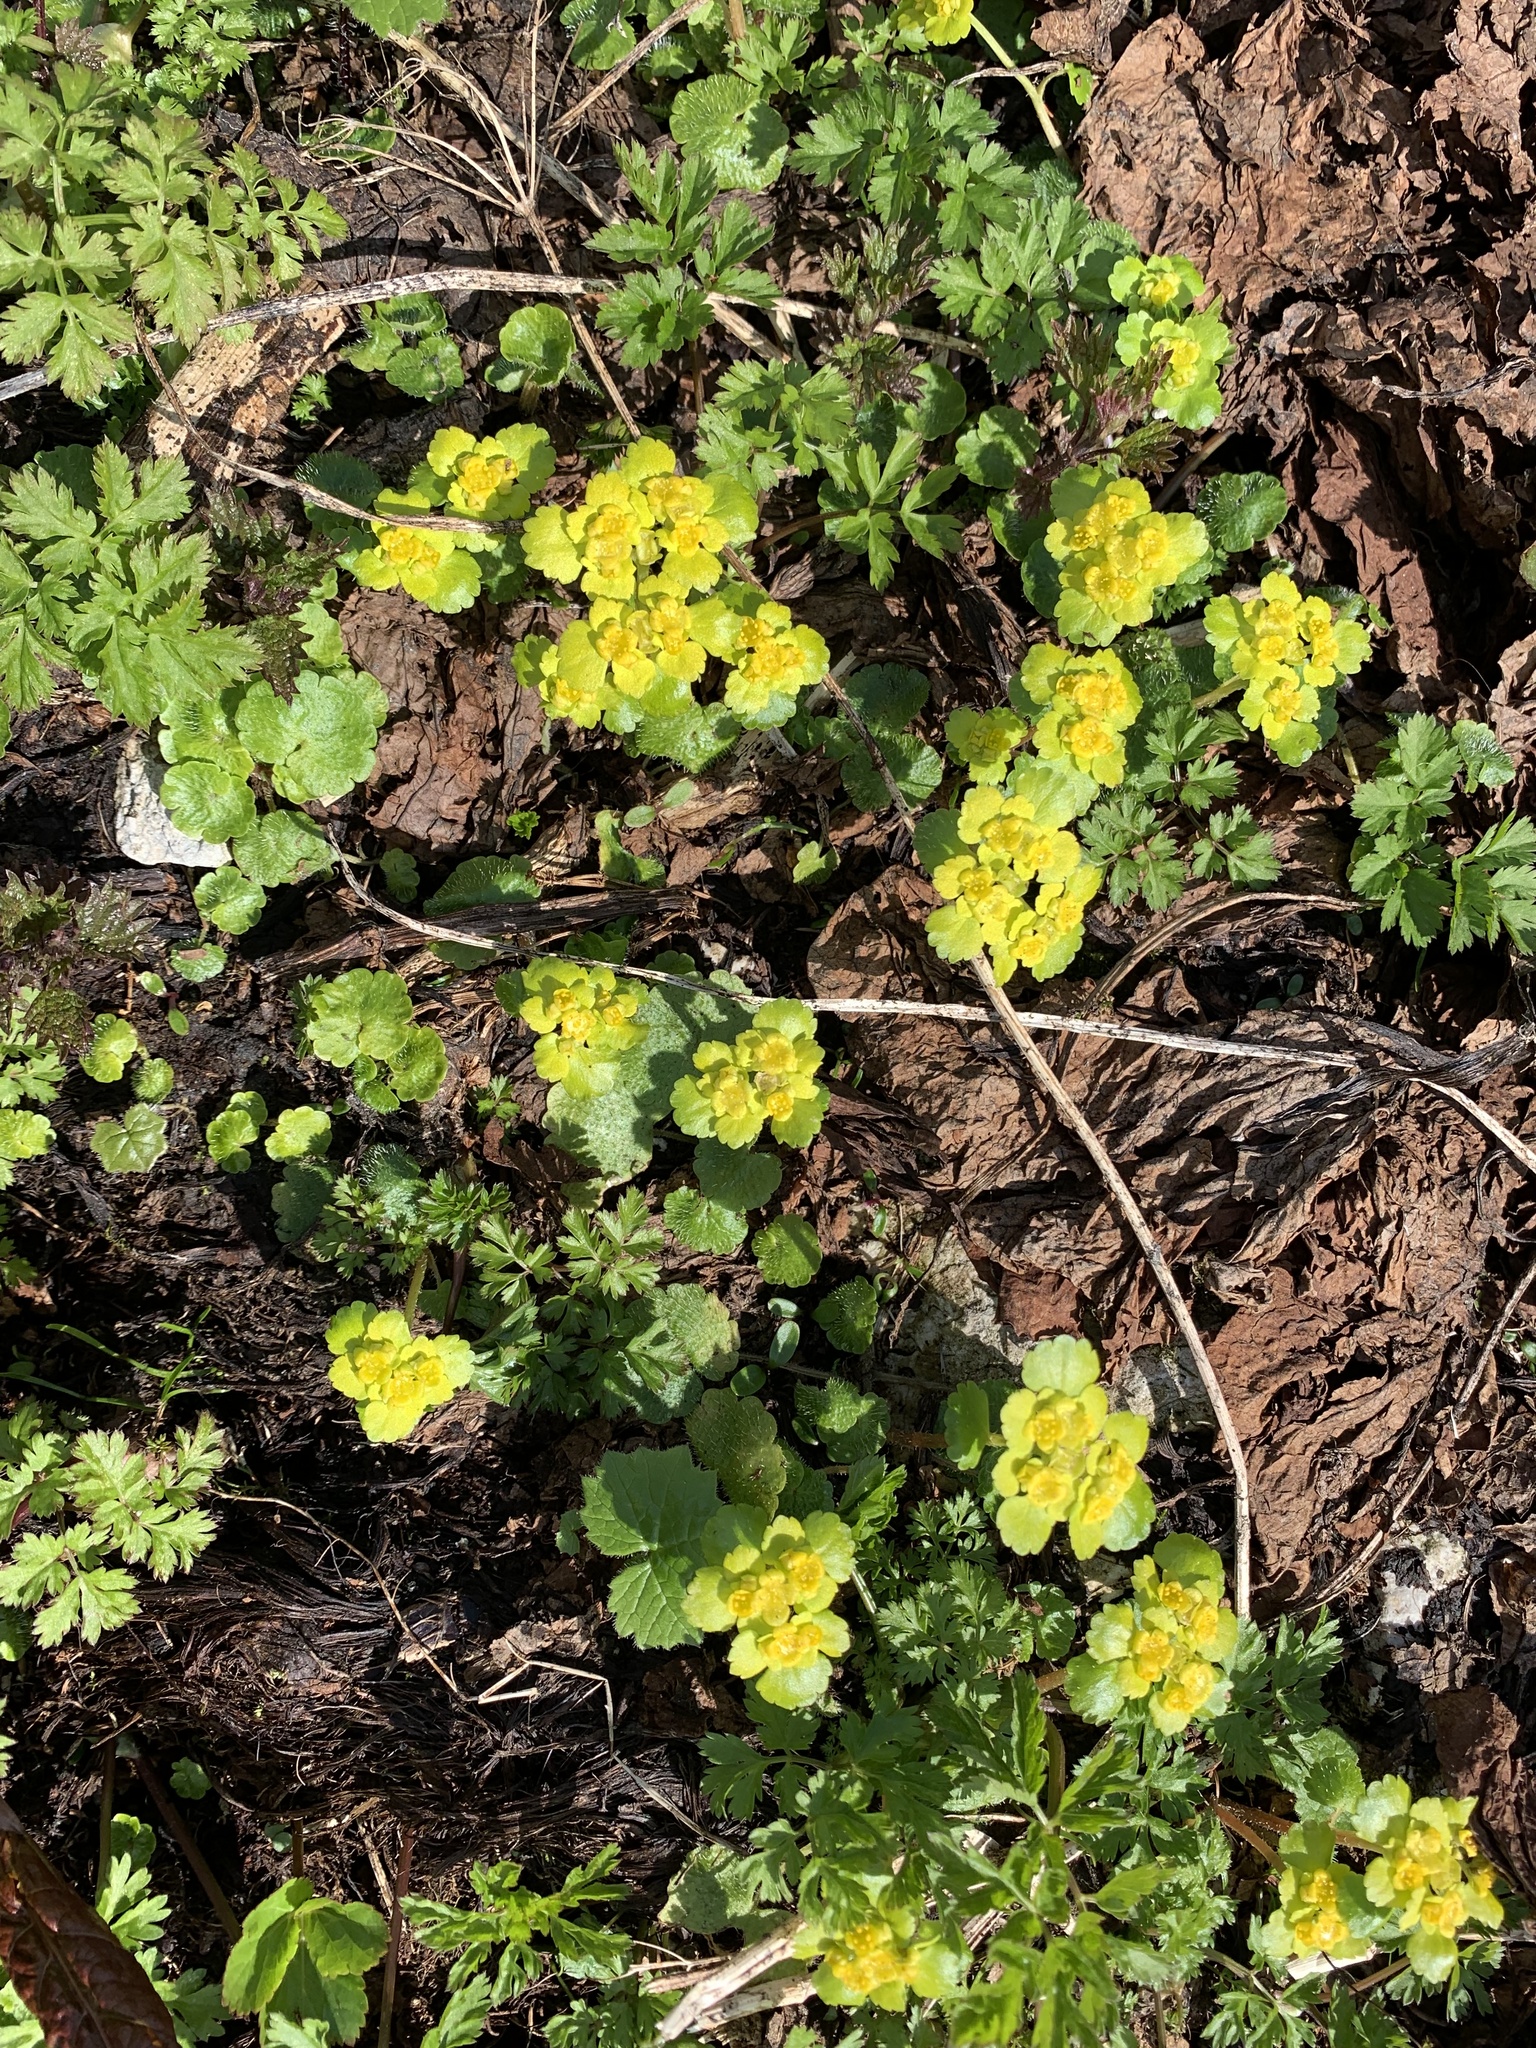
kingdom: Plantae
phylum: Tracheophyta
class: Magnoliopsida
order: Saxifragales
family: Saxifragaceae
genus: Chrysosplenium
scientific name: Chrysosplenium alternifolium
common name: Alternate-leaved golden-saxifrage
